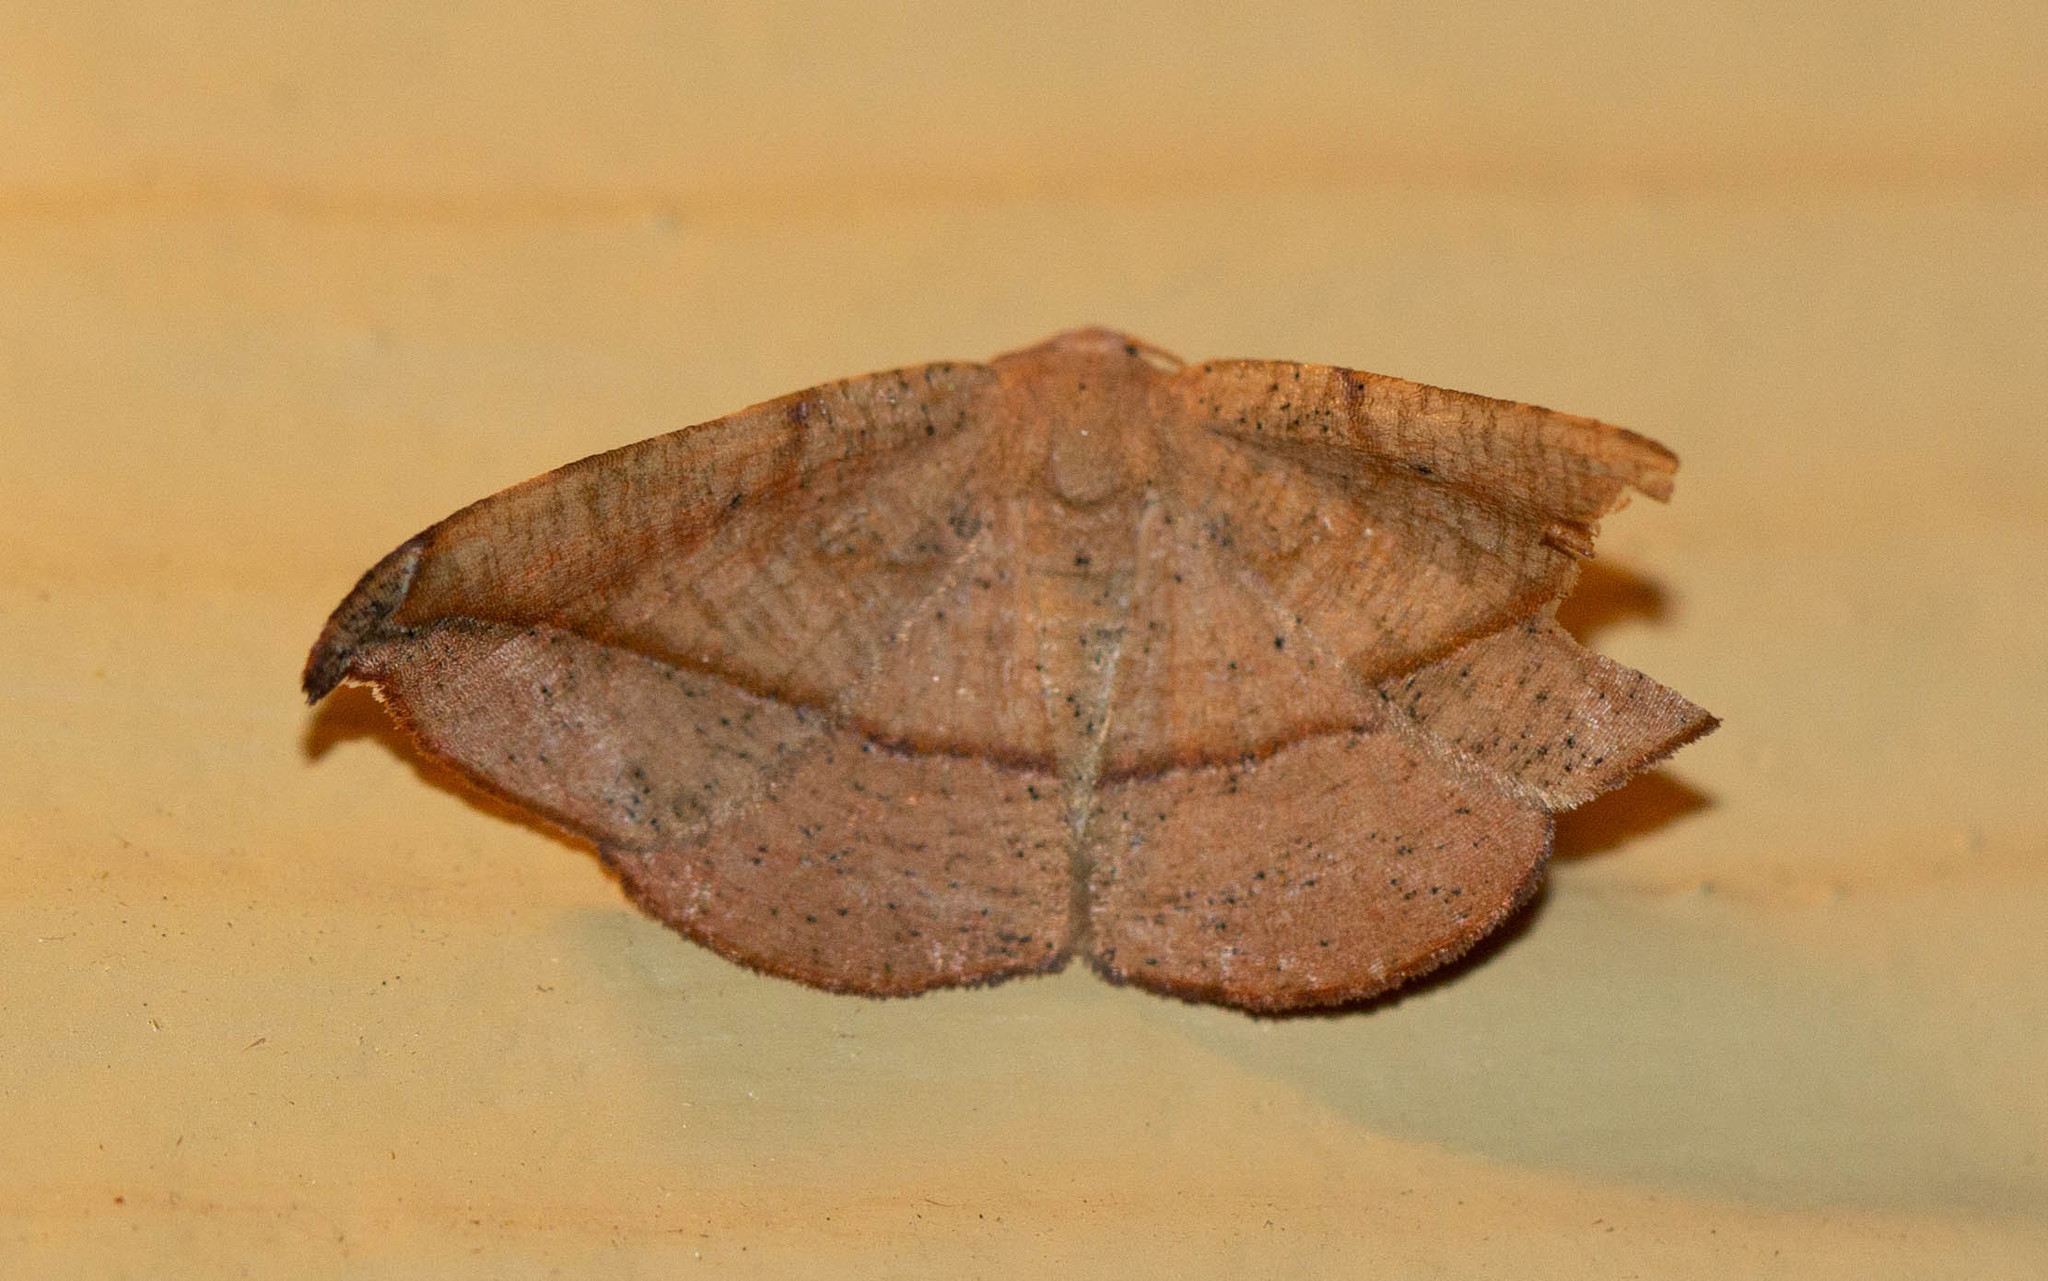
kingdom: Animalia
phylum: Arthropoda
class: Insecta
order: Lepidoptera
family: Geometridae
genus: Patalene
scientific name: Patalene olyzonaria
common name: Juniper geometer moth
